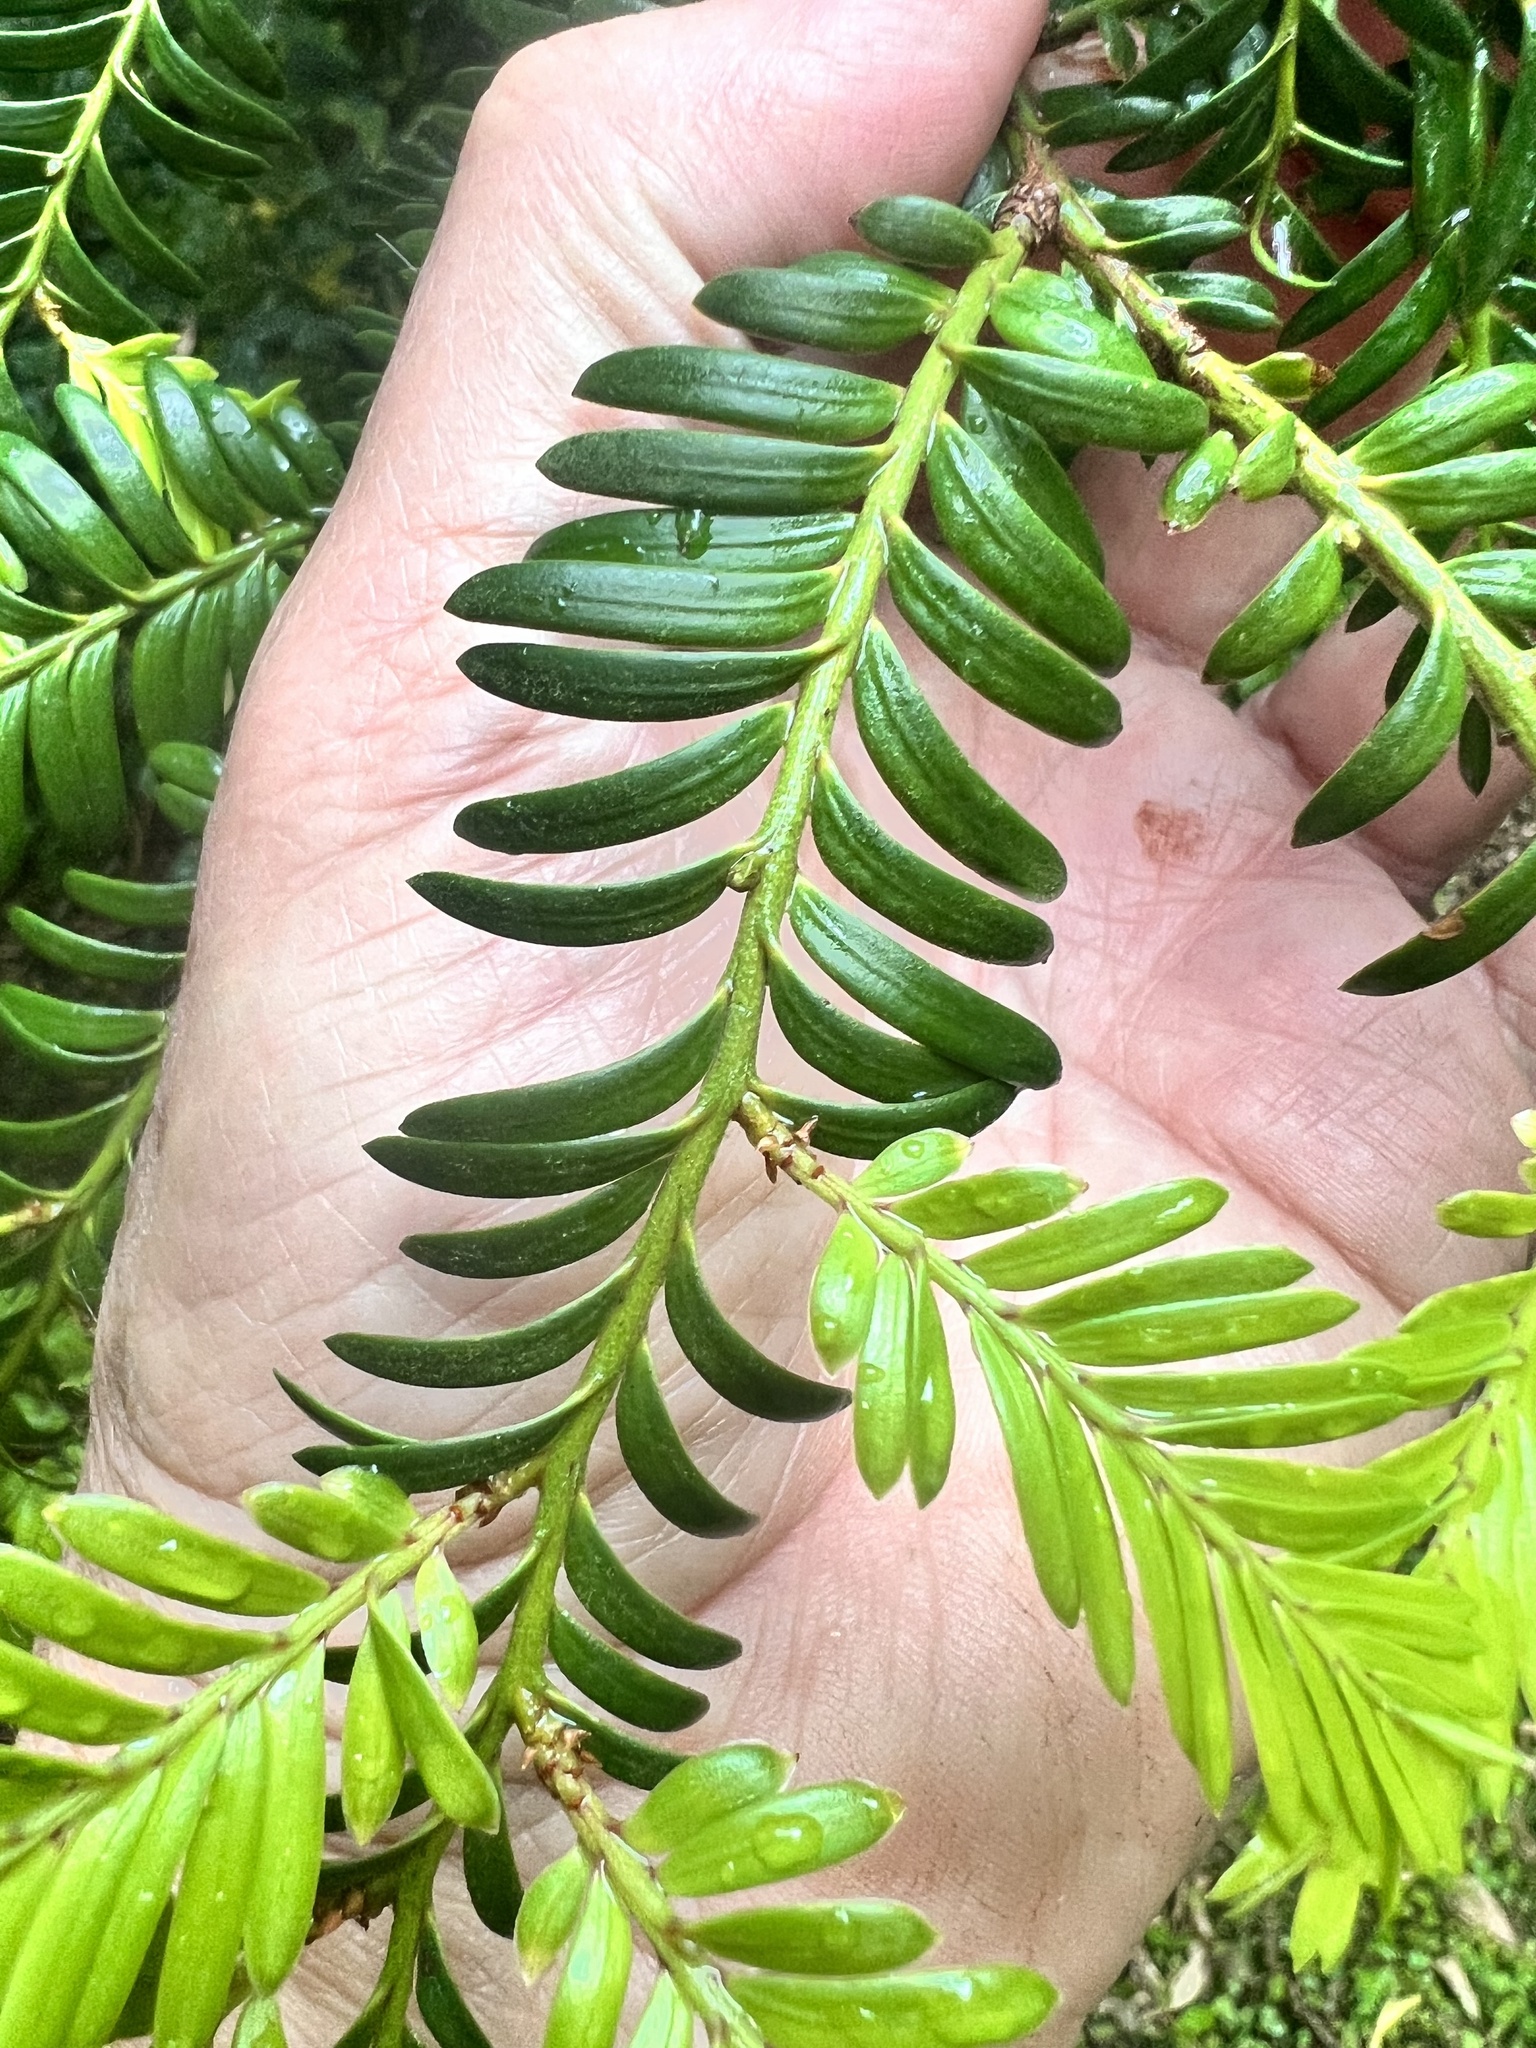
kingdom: Plantae
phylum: Tracheophyta
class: Pinopsida
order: Pinales
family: Podocarpaceae
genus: Prumnopitys
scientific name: Prumnopitys ferruginea
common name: Brown pine
